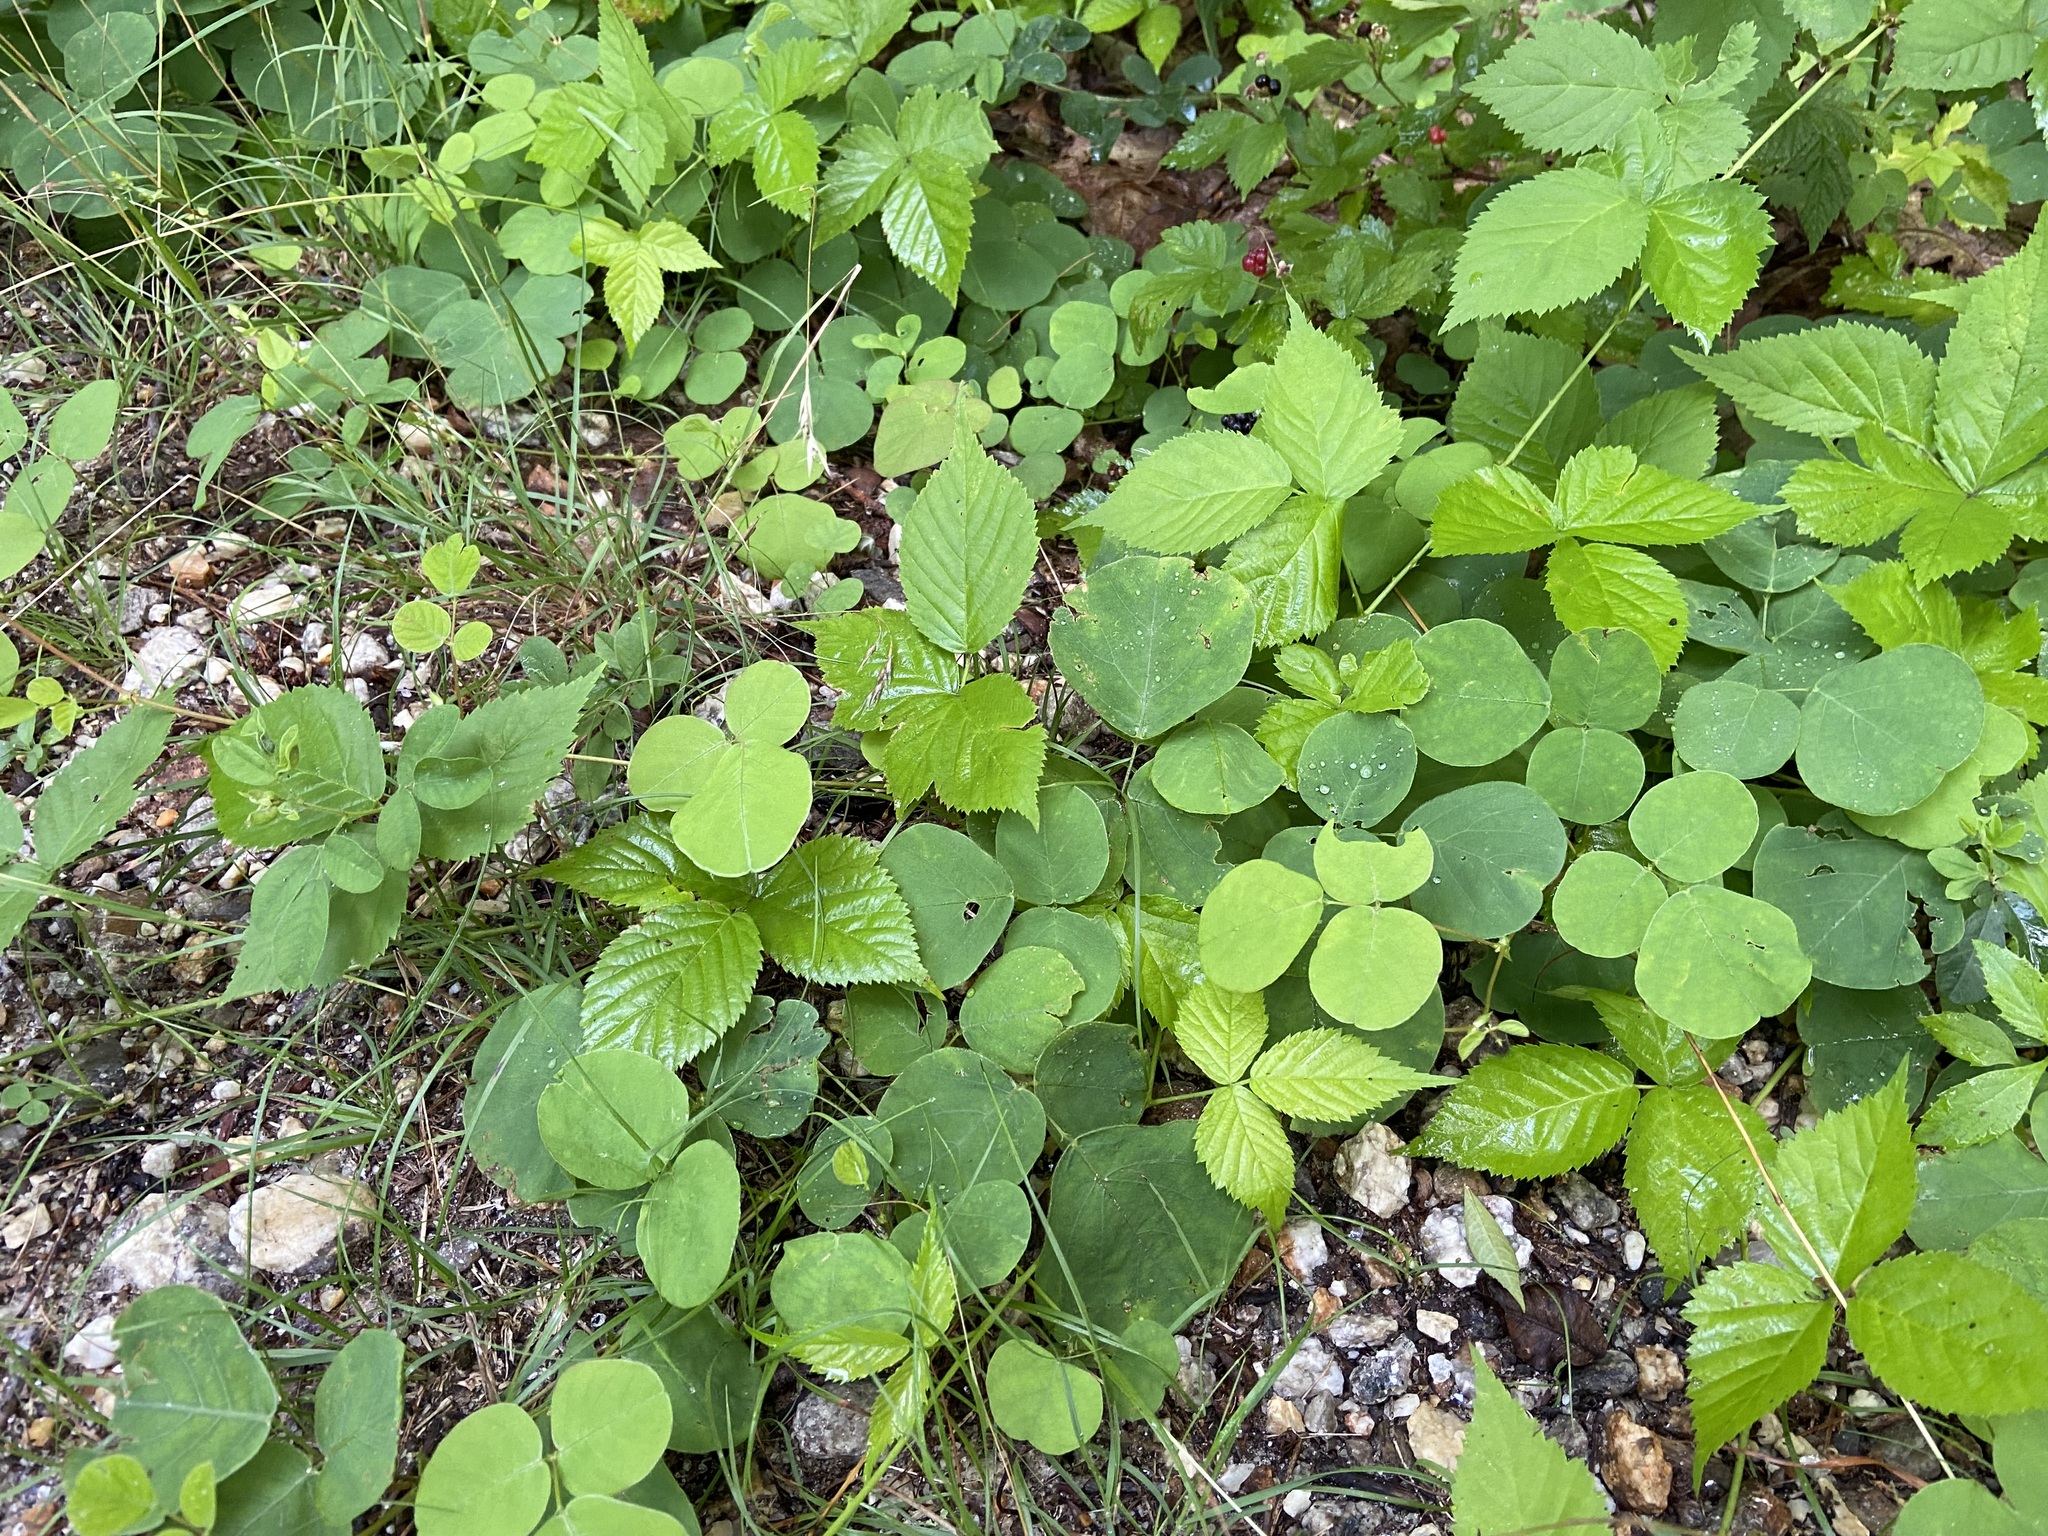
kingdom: Plantae
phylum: Tracheophyta
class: Magnoliopsida
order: Fabales
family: Fabaceae
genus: Desmodium
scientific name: Desmodium rotundifolium
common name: Dollarleaf
